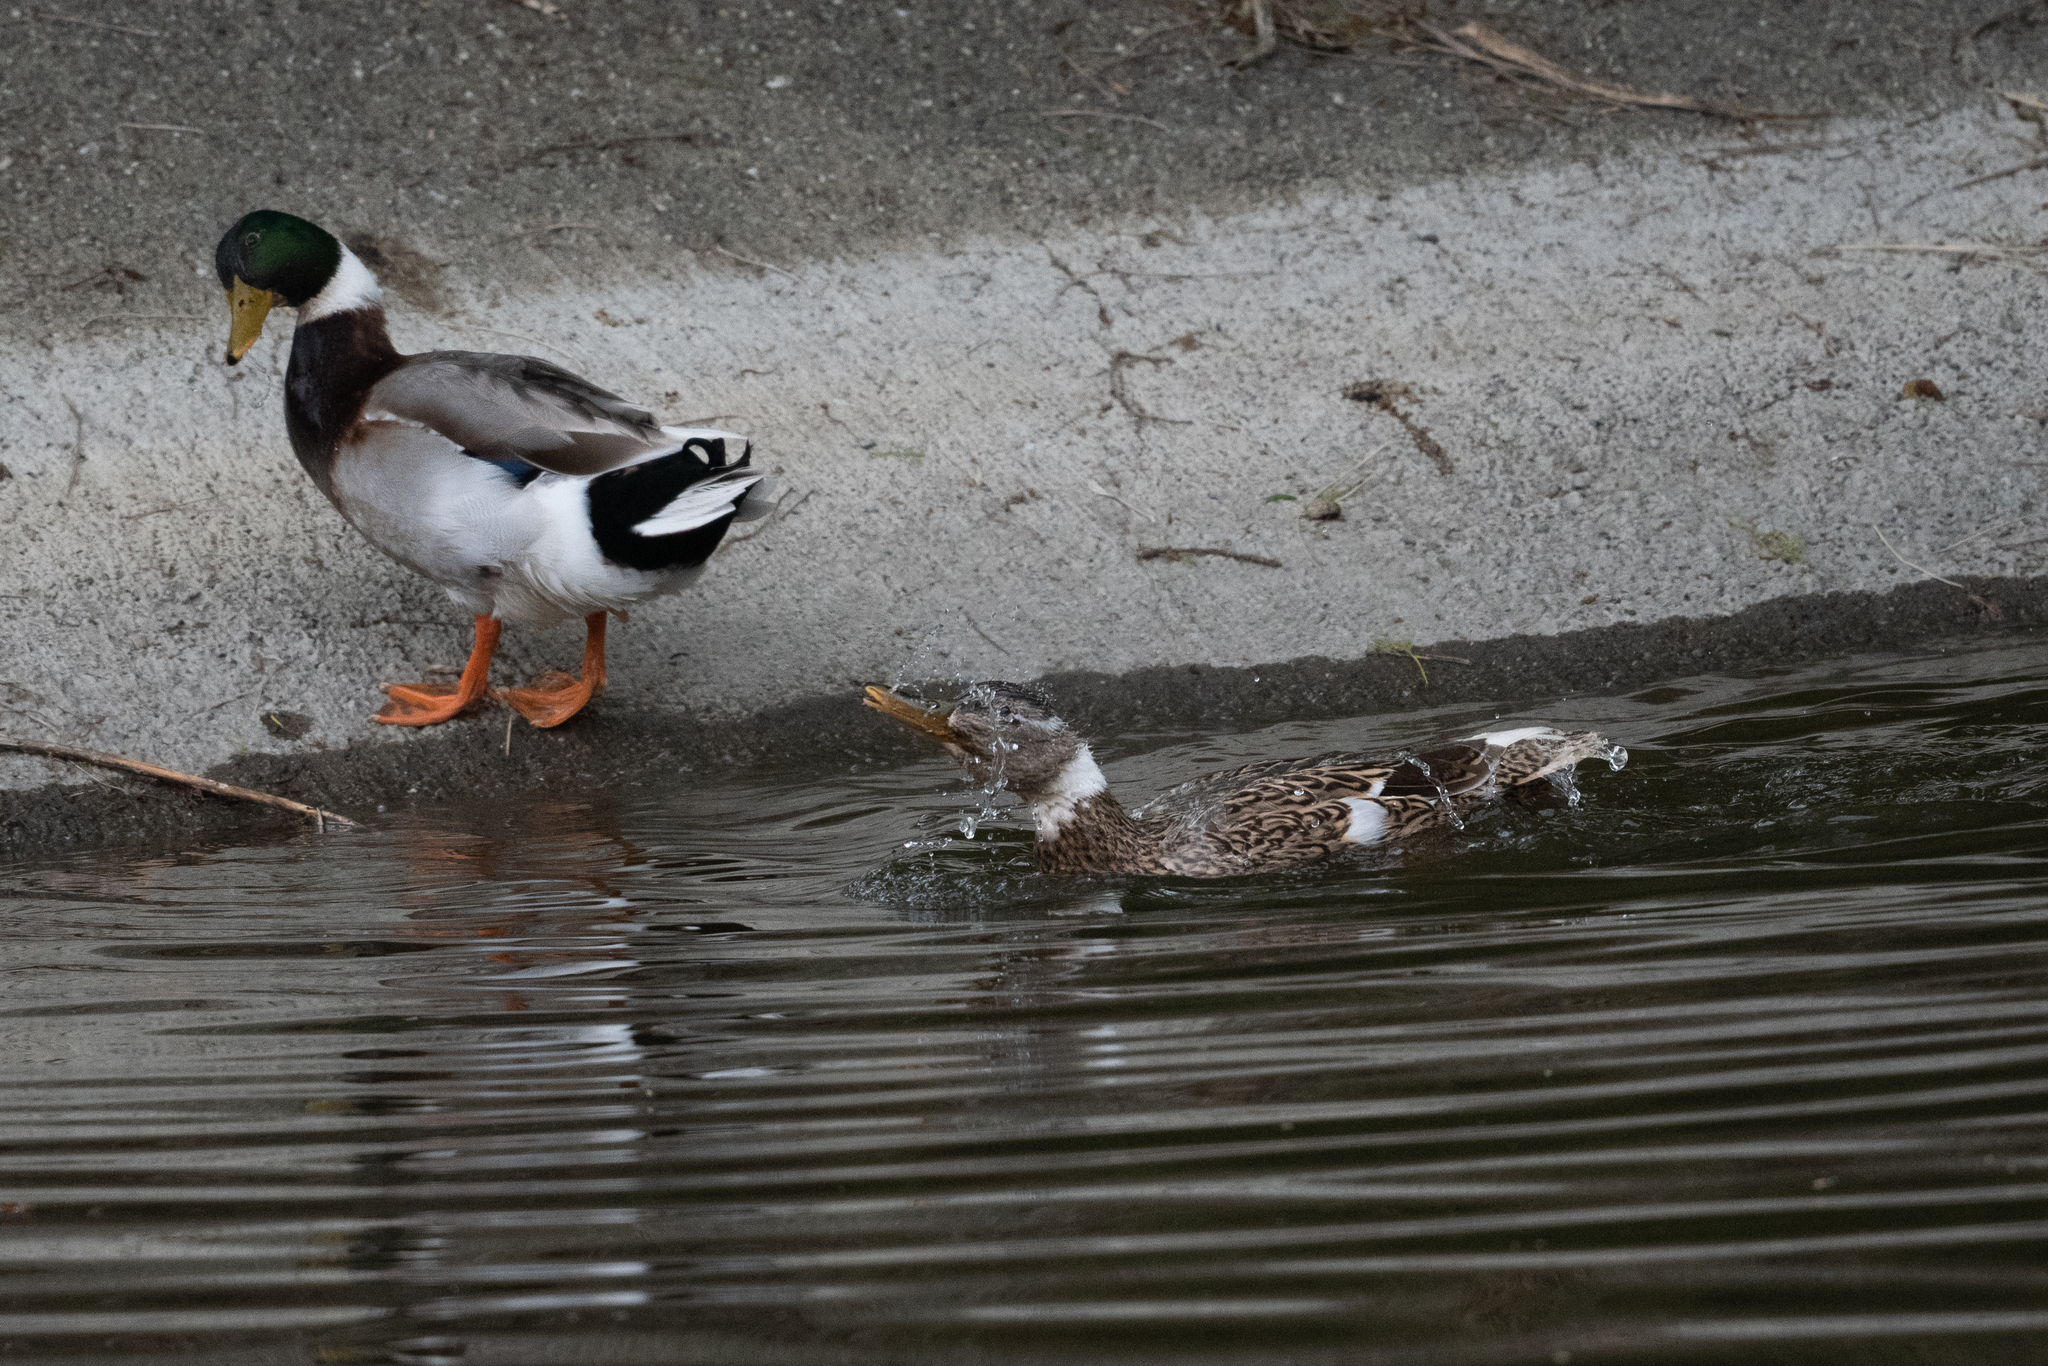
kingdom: Animalia
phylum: Chordata
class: Aves
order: Anseriformes
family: Anatidae
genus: Anas
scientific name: Anas platyrhynchos
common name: Mallard
